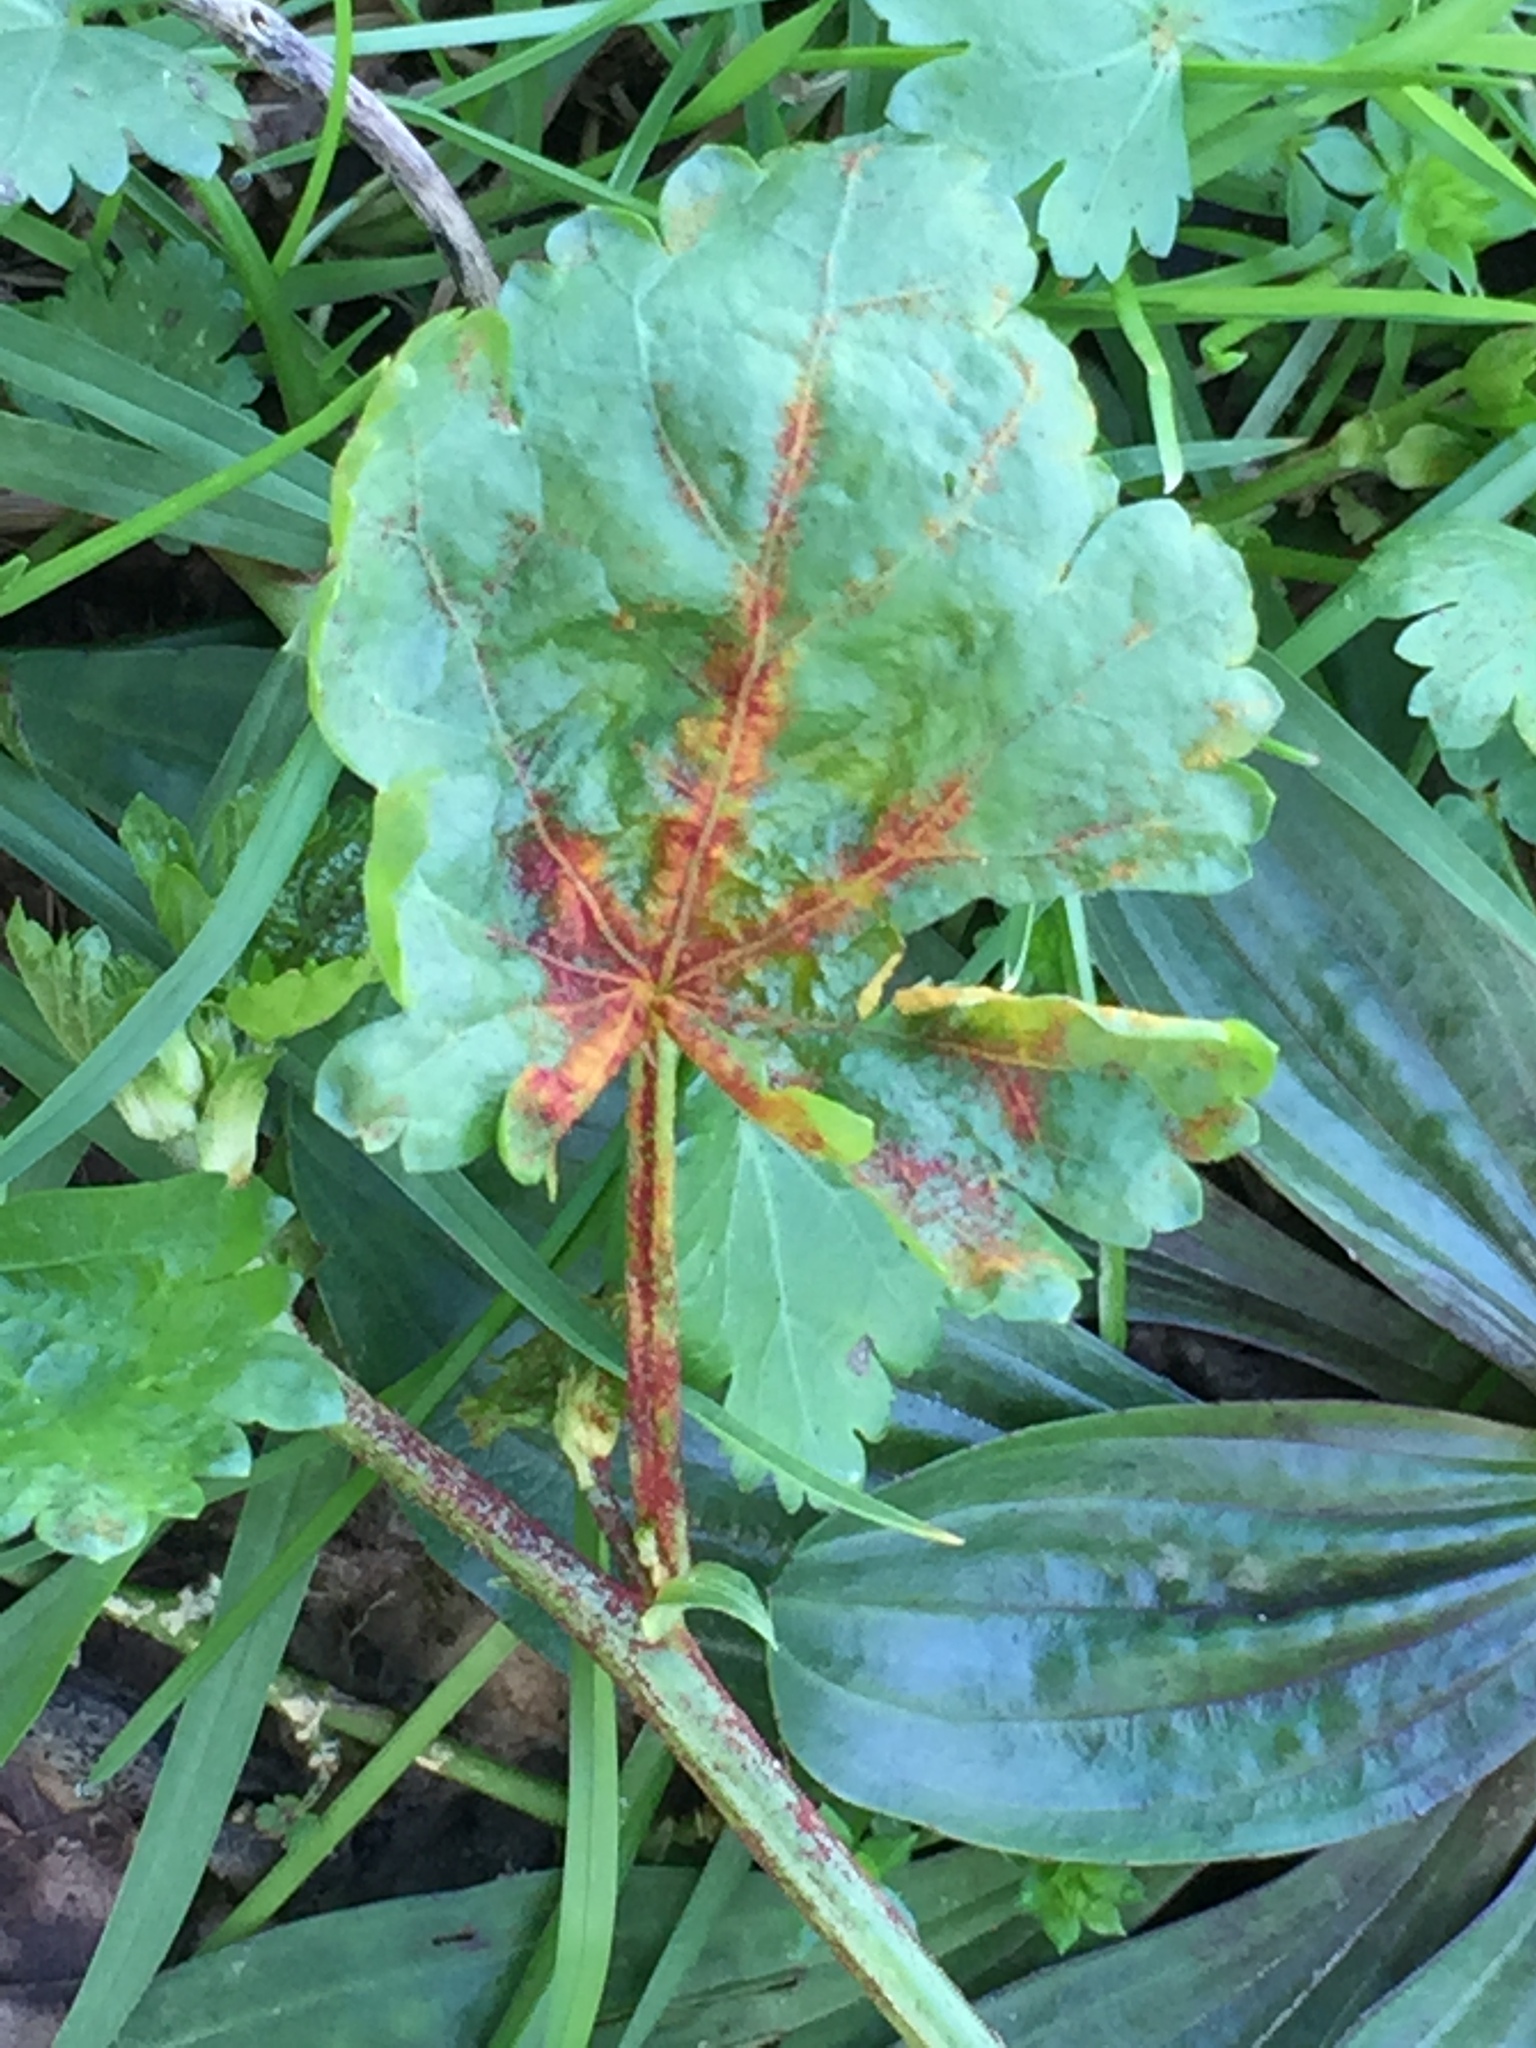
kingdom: Fungi
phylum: Chytridiomycota
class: Chytridiomycetes
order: Chytridiales
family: Synchytriaceae
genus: Synchytrium
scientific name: Synchytrium australe
